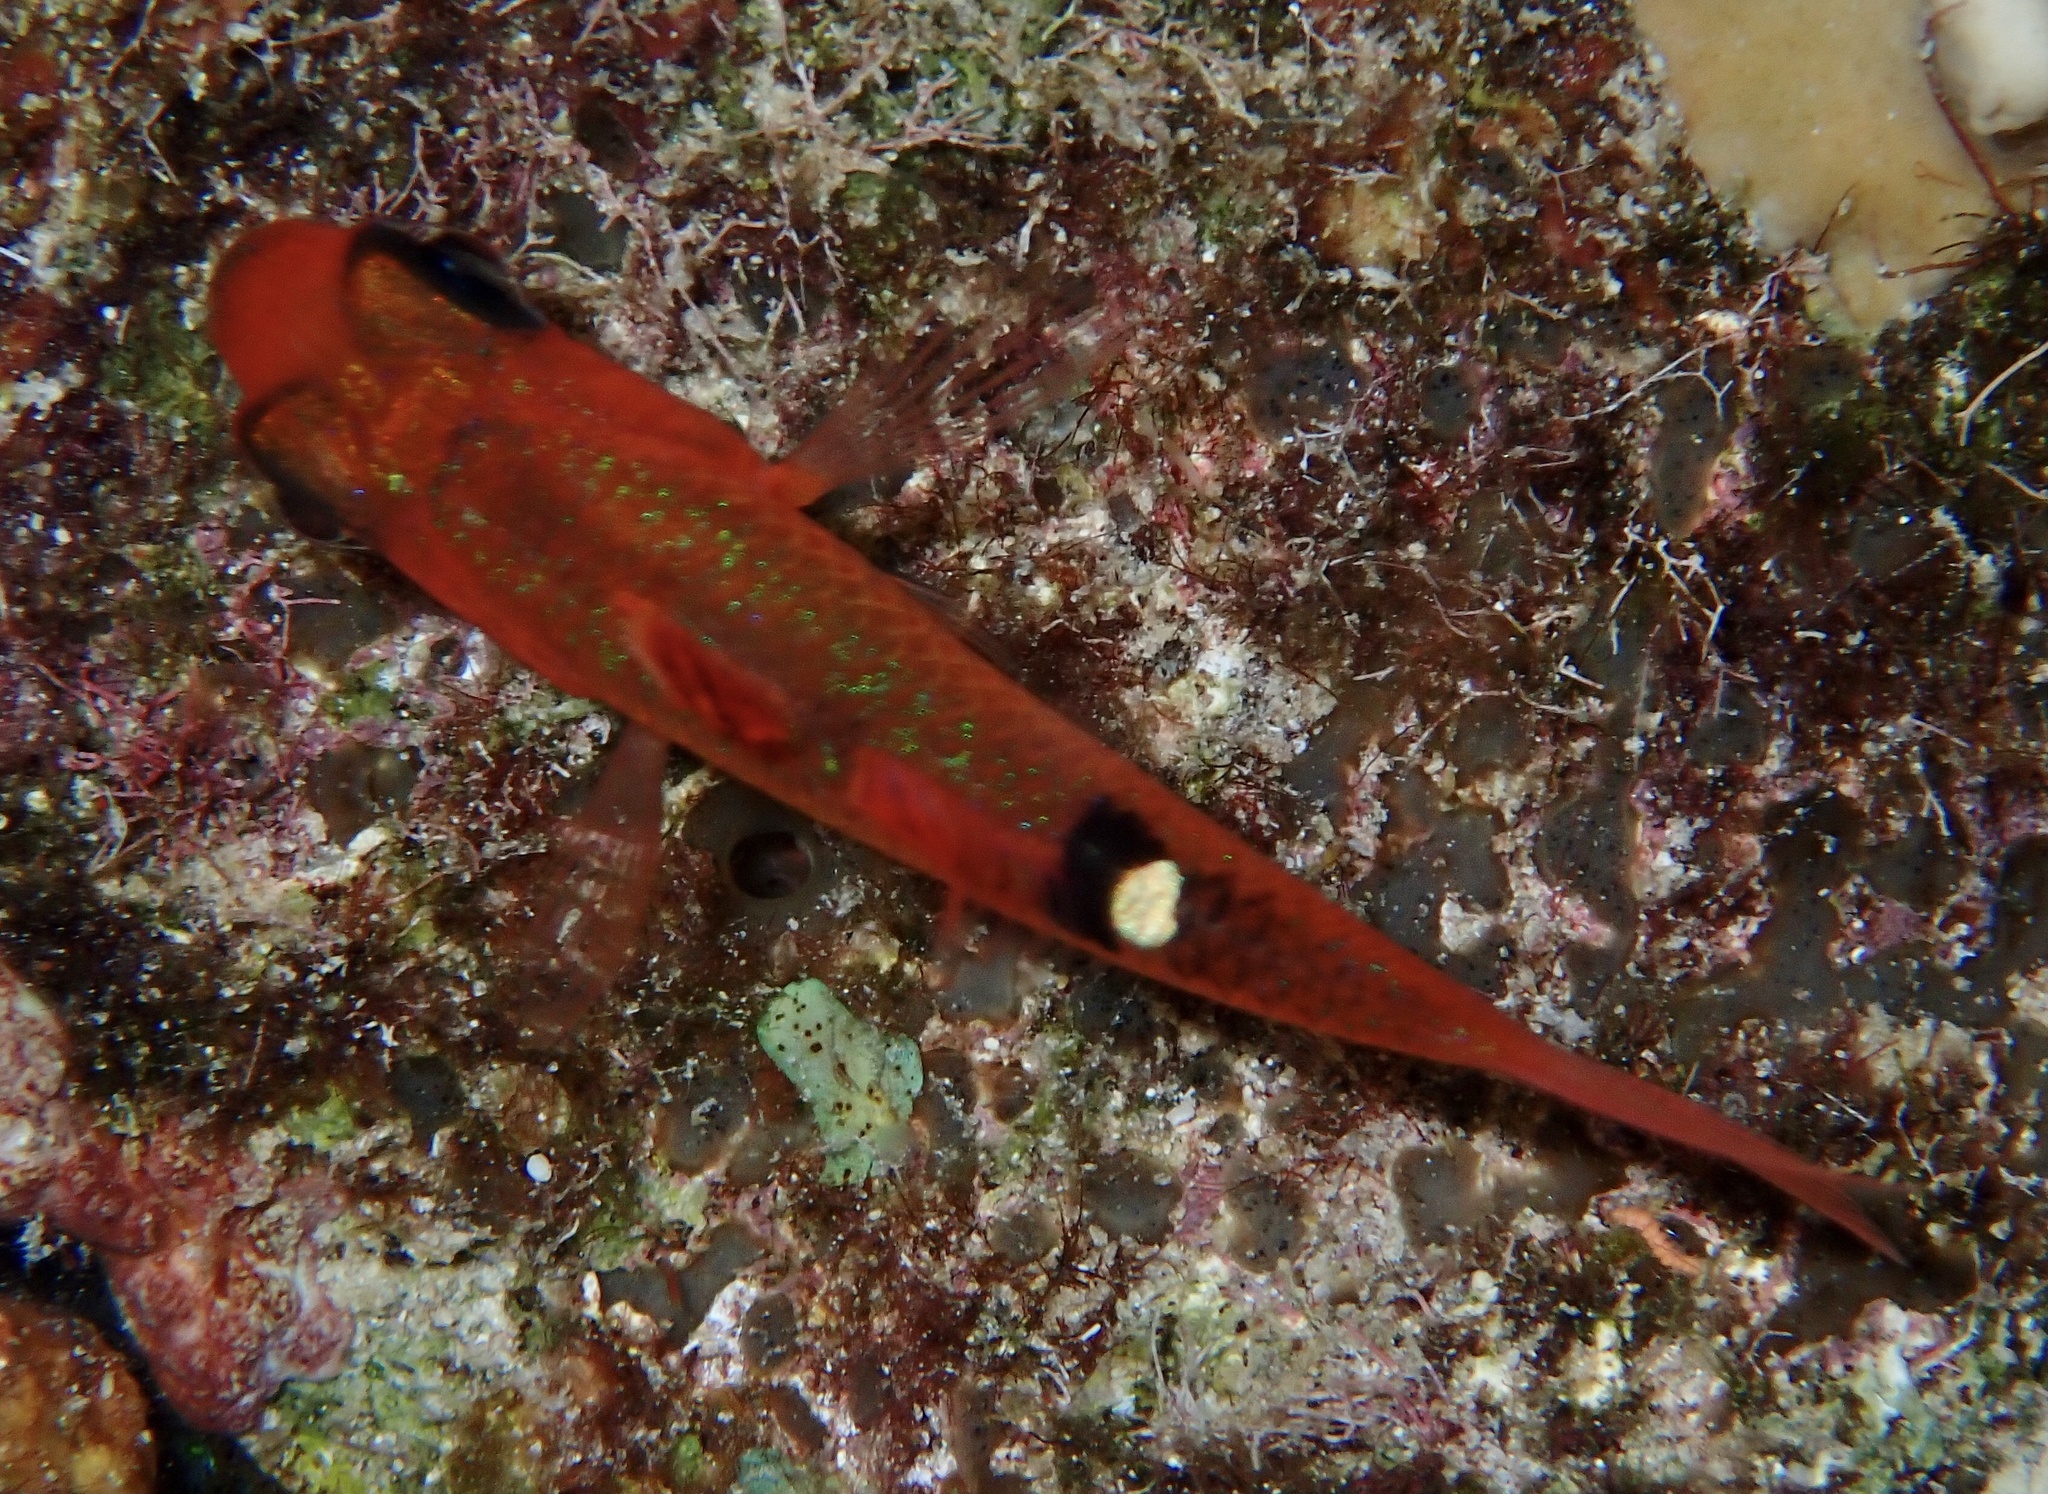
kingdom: Animalia
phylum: Chordata
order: Perciformes
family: Apogonidae
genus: Apogon
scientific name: Apogon lachneri
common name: Whitestar cardinalfish
